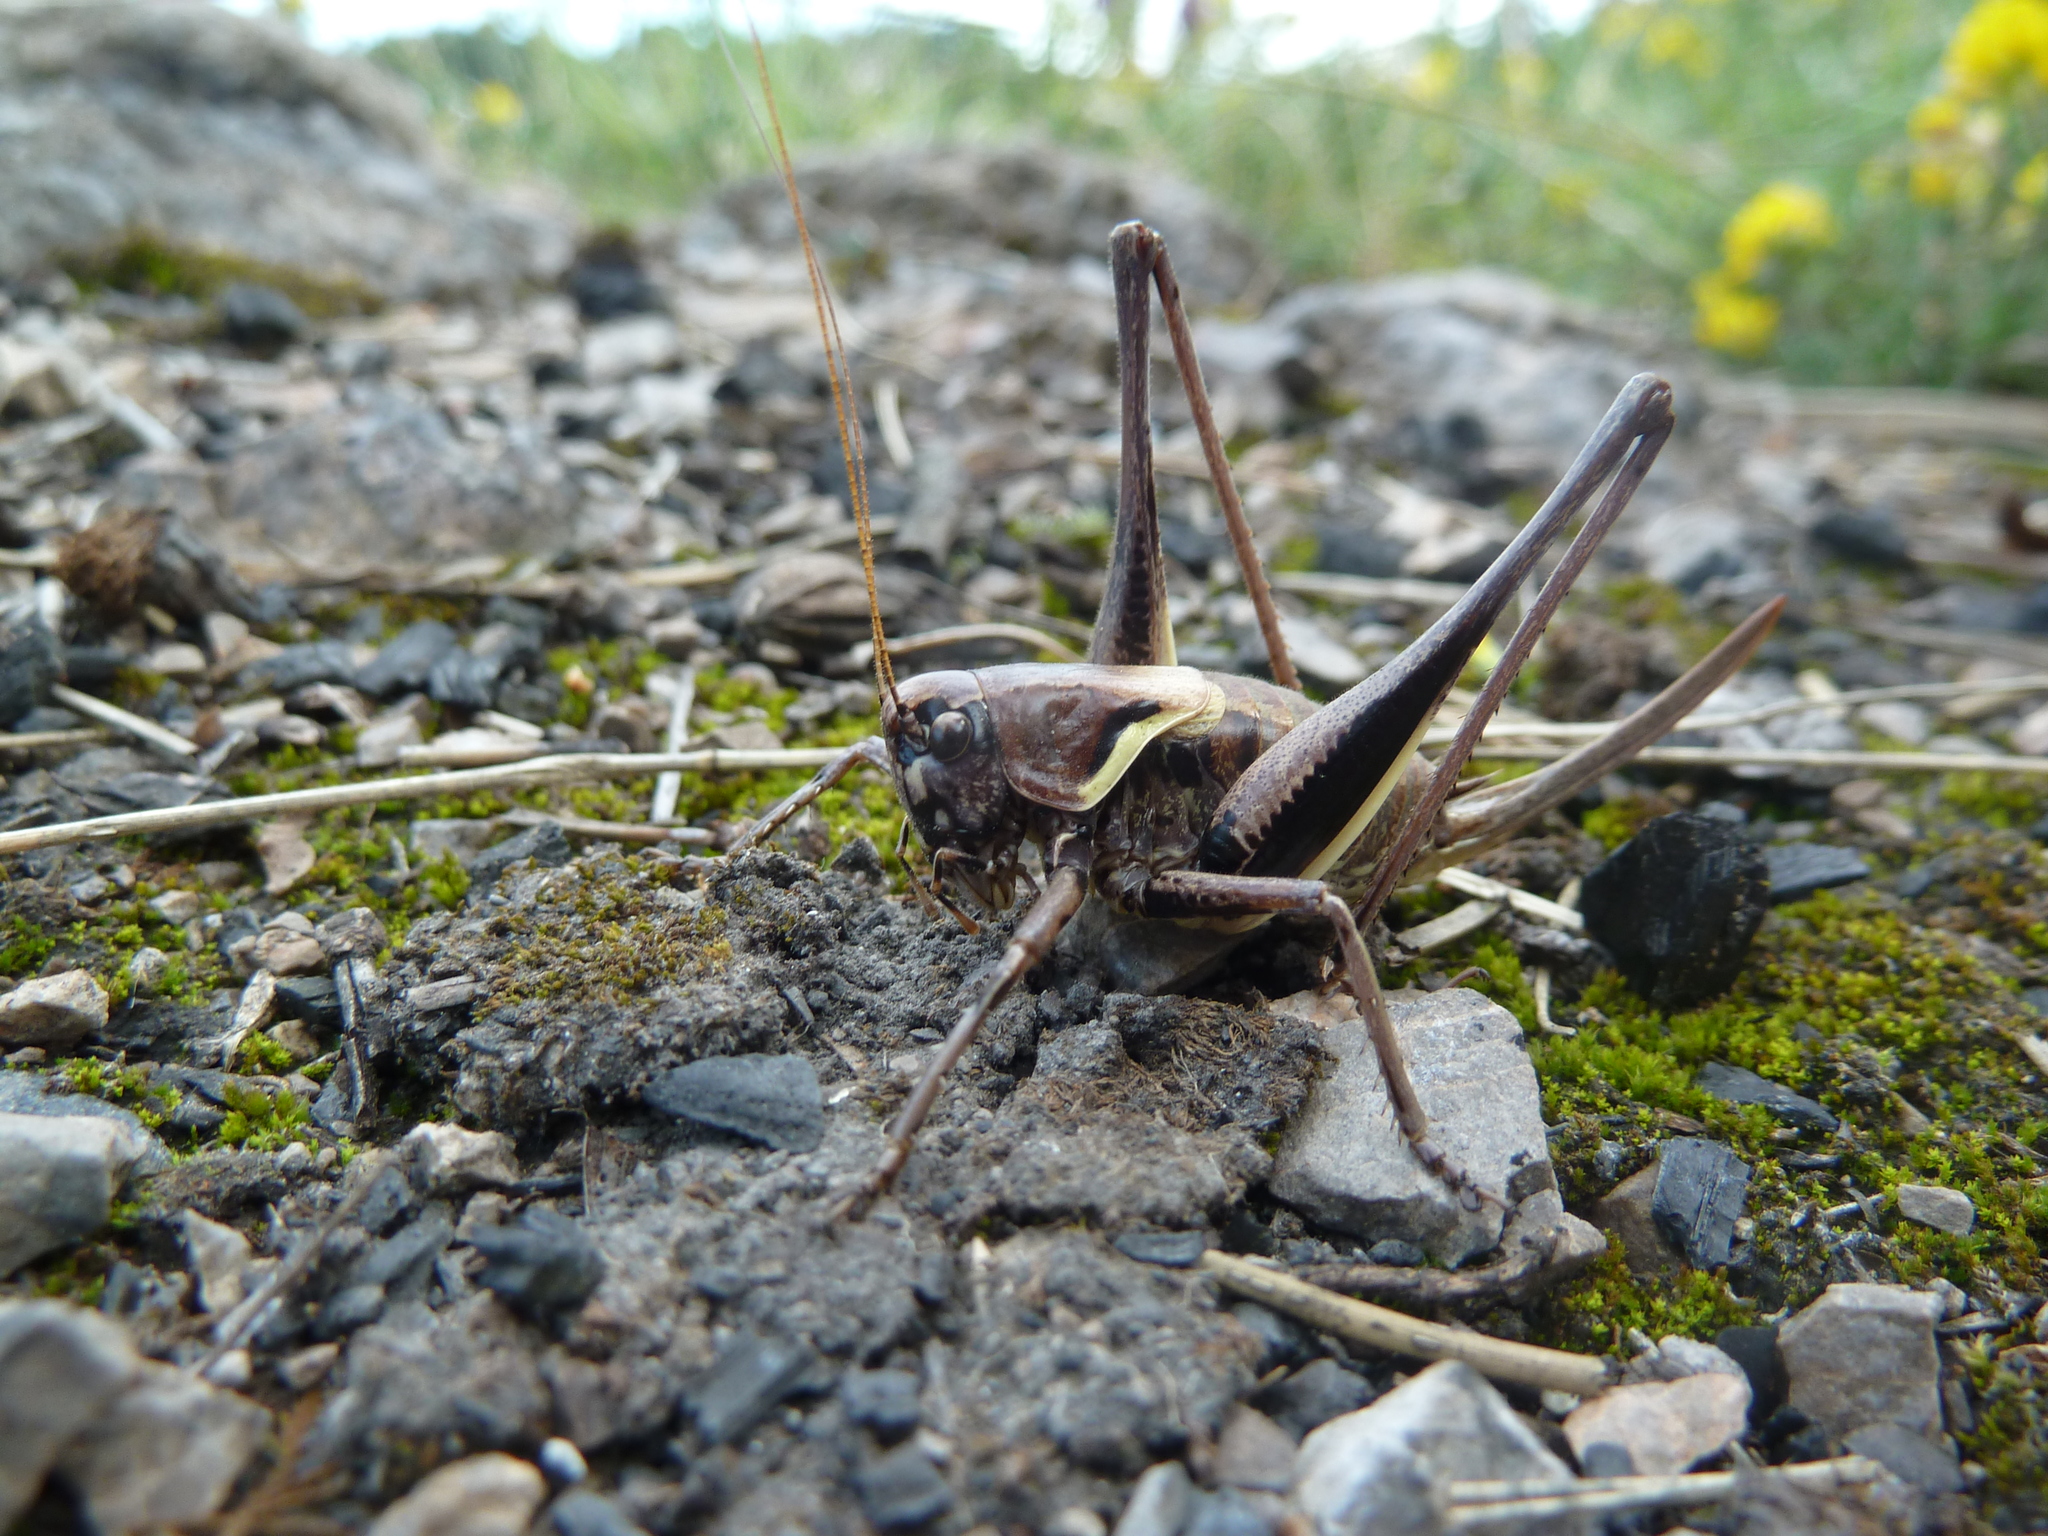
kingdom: Animalia
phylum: Arthropoda
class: Insecta
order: Orthoptera
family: Tettigoniidae
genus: Pholidoptera
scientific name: Pholidoptera aptera
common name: Alpine dark bush-cricket
